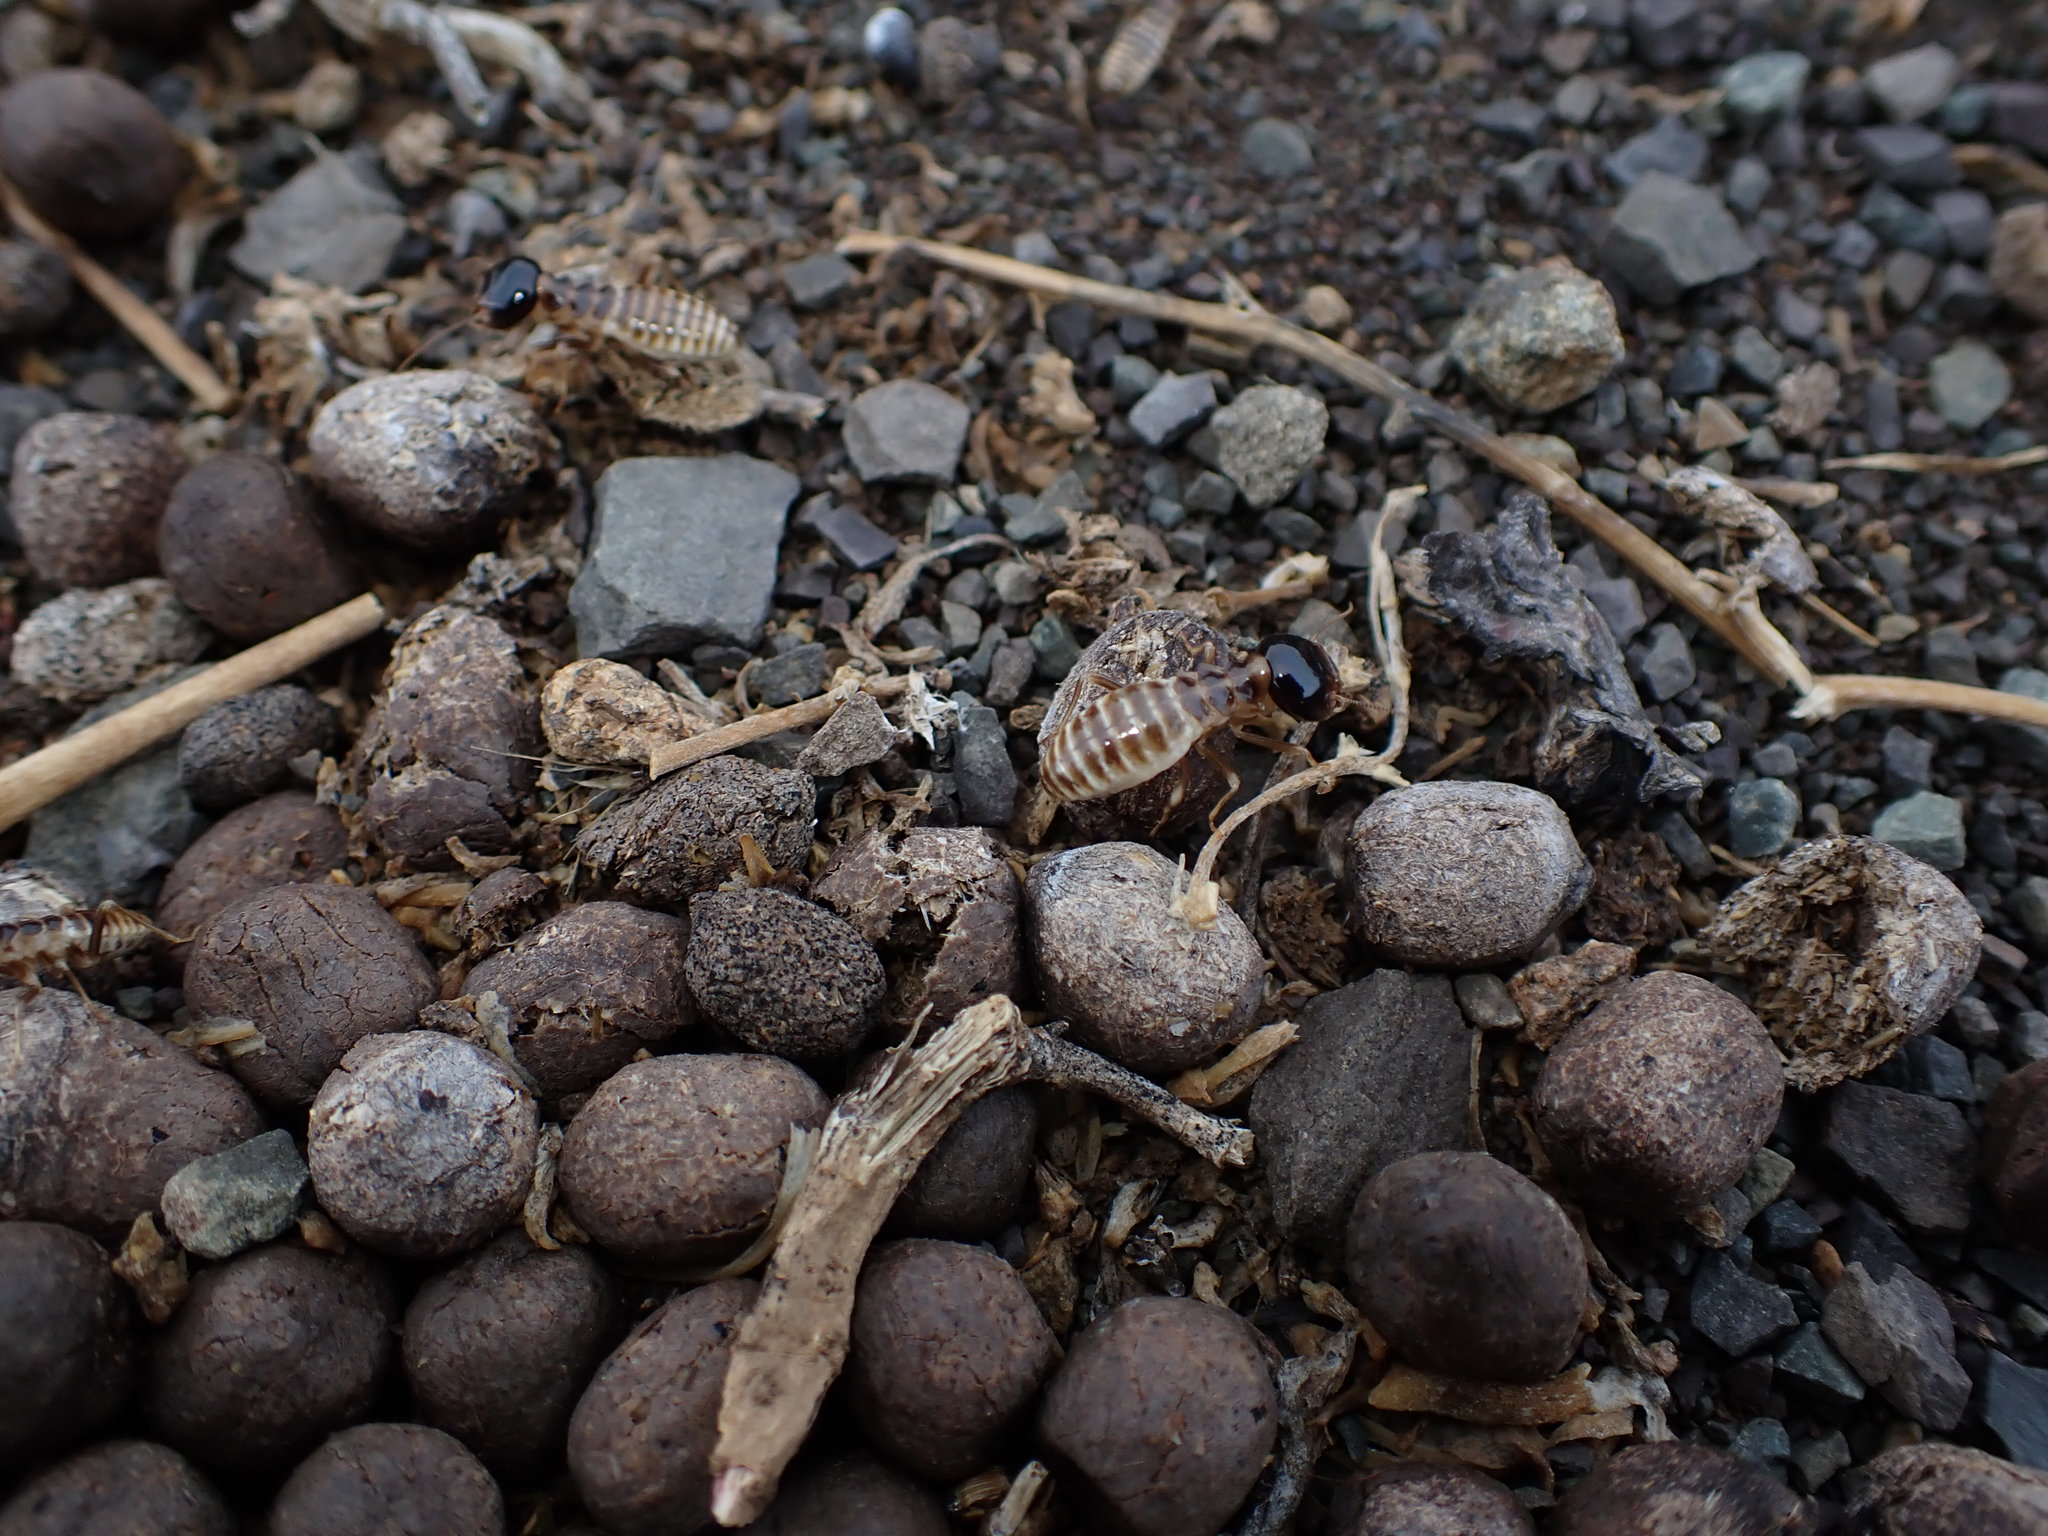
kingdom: Animalia
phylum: Arthropoda
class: Insecta
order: Blattodea
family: Hodotermitidae
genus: Hodotermes
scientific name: Hodotermes mossambicus
